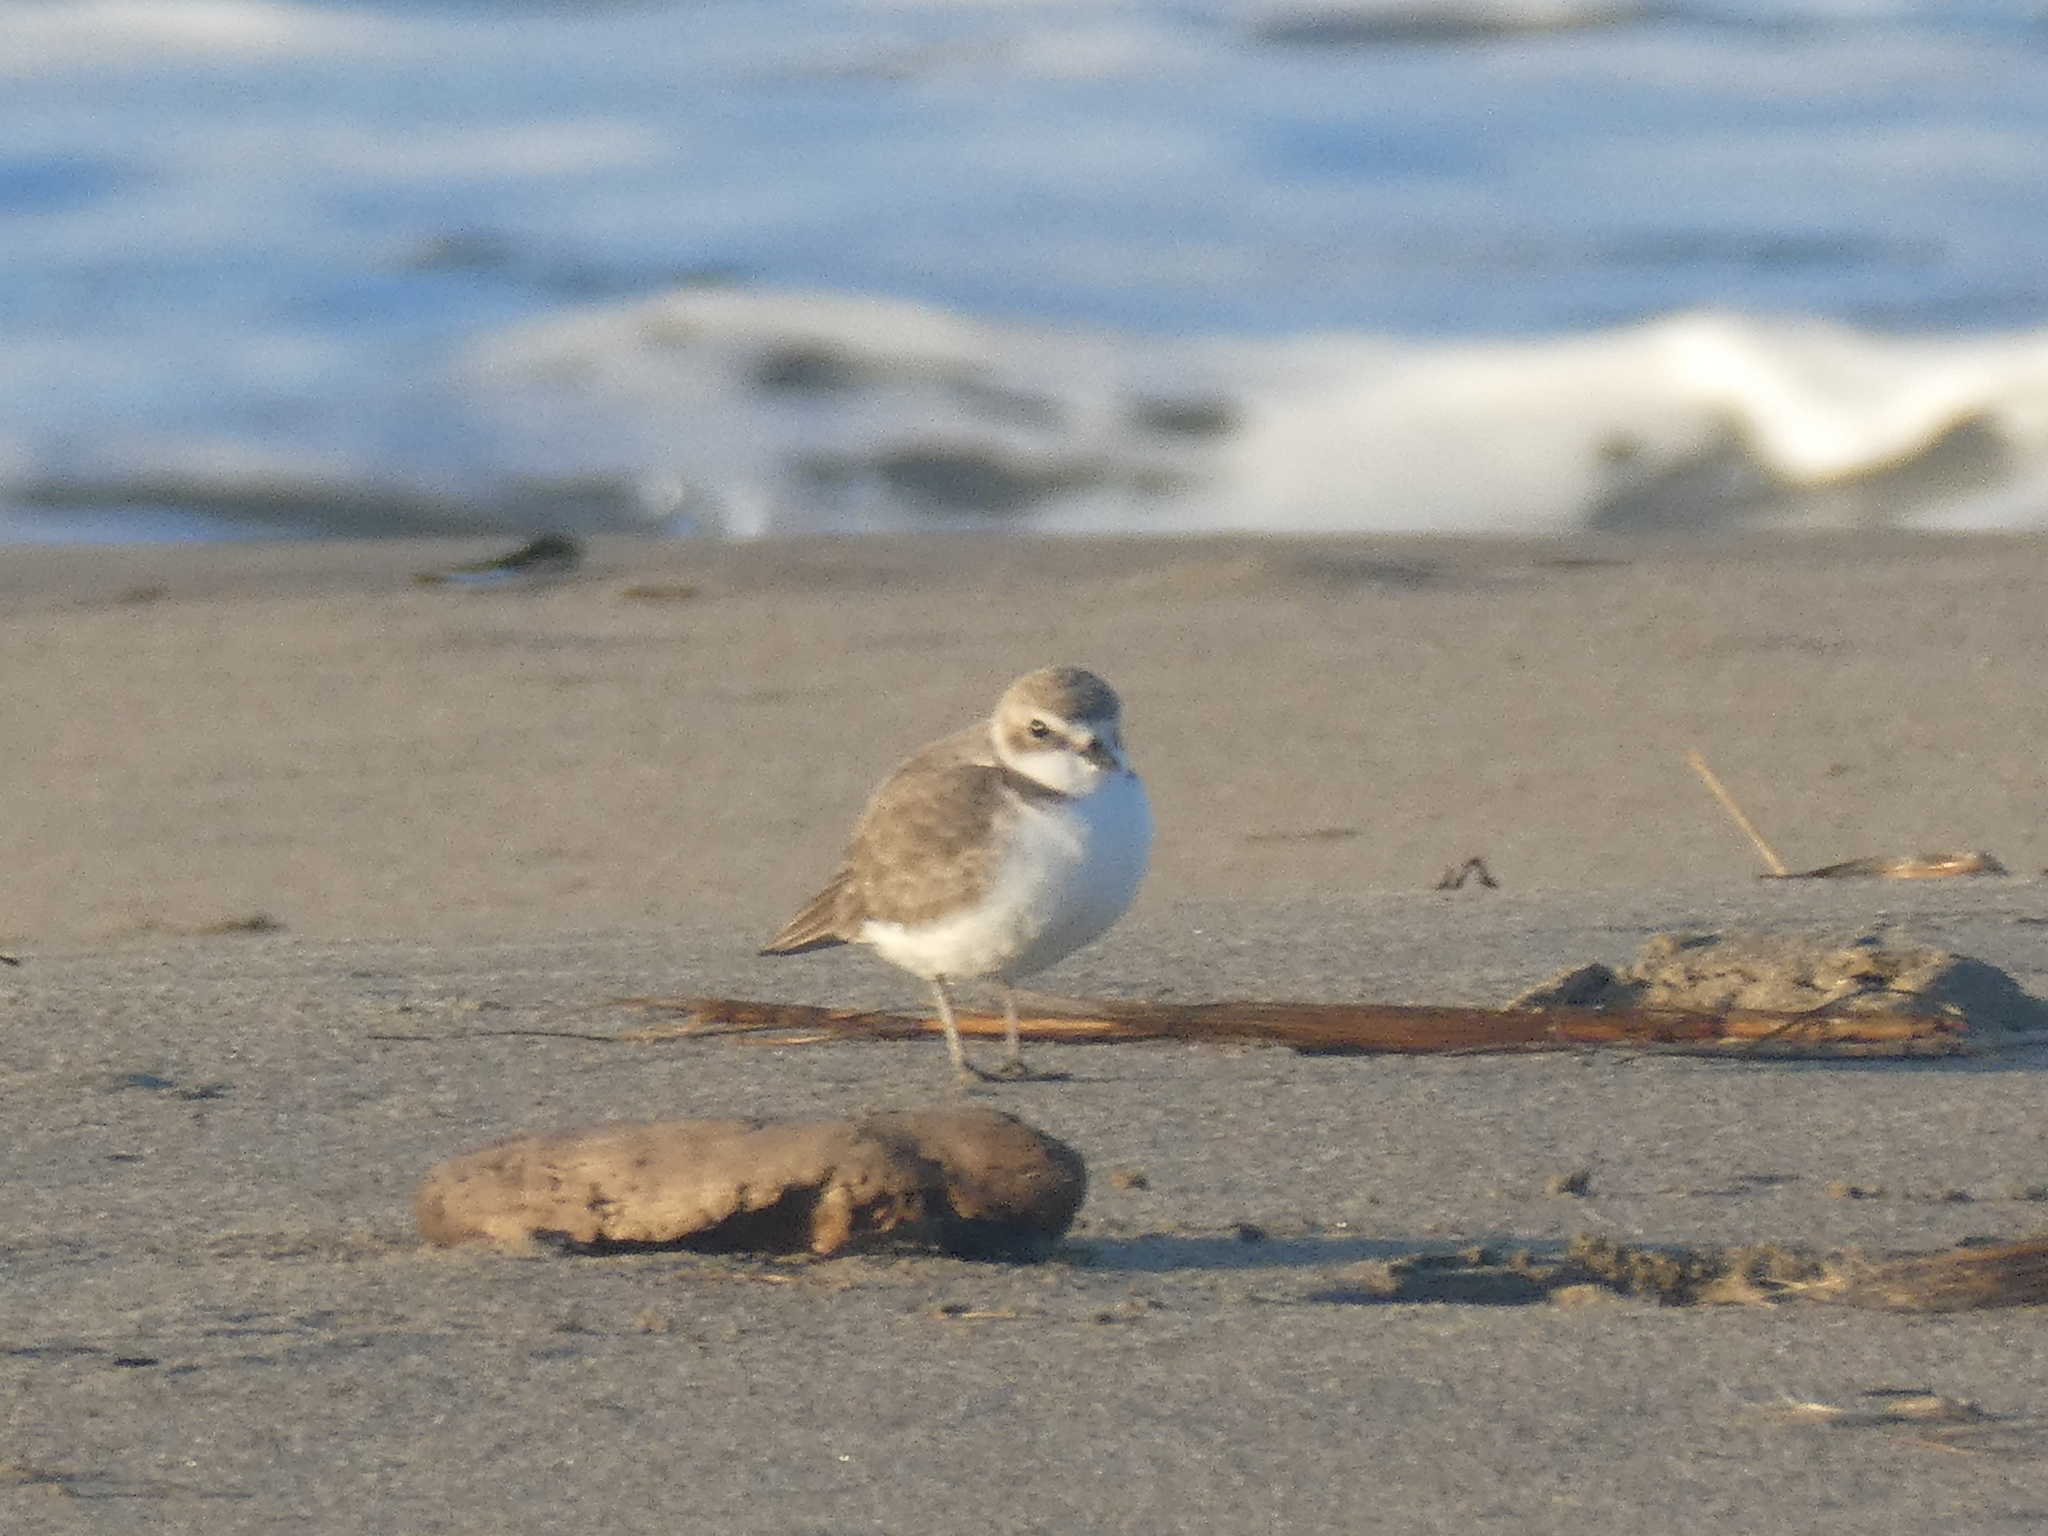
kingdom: Animalia
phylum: Chordata
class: Aves
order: Charadriiformes
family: Charadriidae
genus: Anarhynchus
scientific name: Anarhynchus
